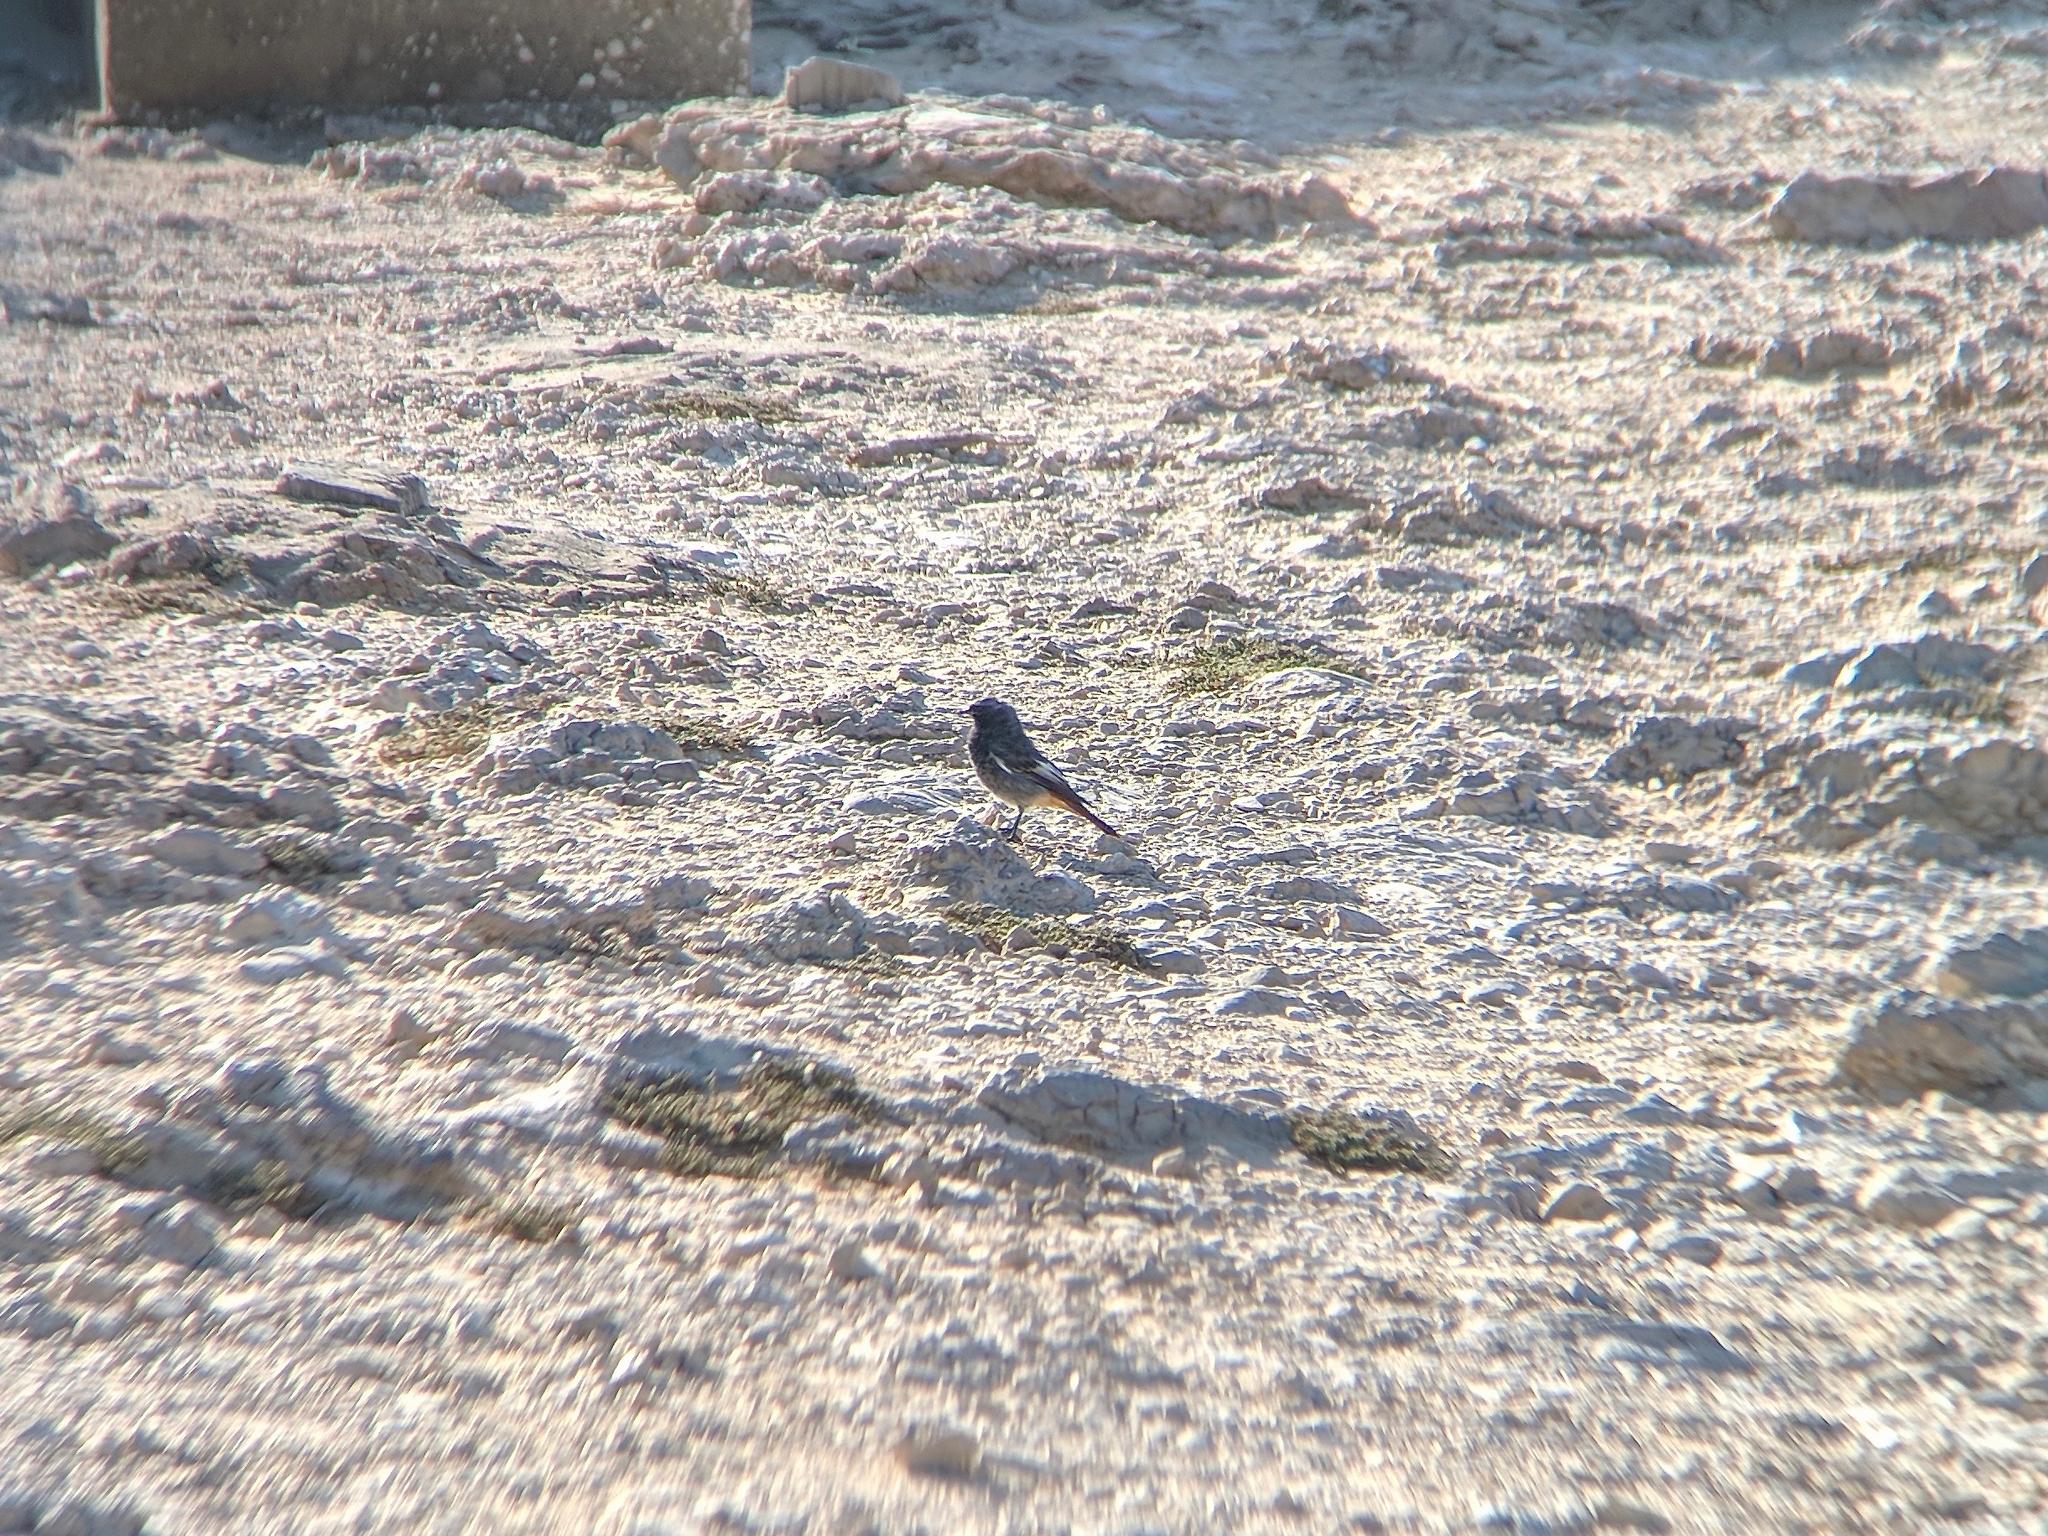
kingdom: Animalia
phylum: Chordata
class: Aves
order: Passeriformes
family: Muscicapidae
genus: Phoenicurus
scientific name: Phoenicurus ochruros
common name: Black redstart
